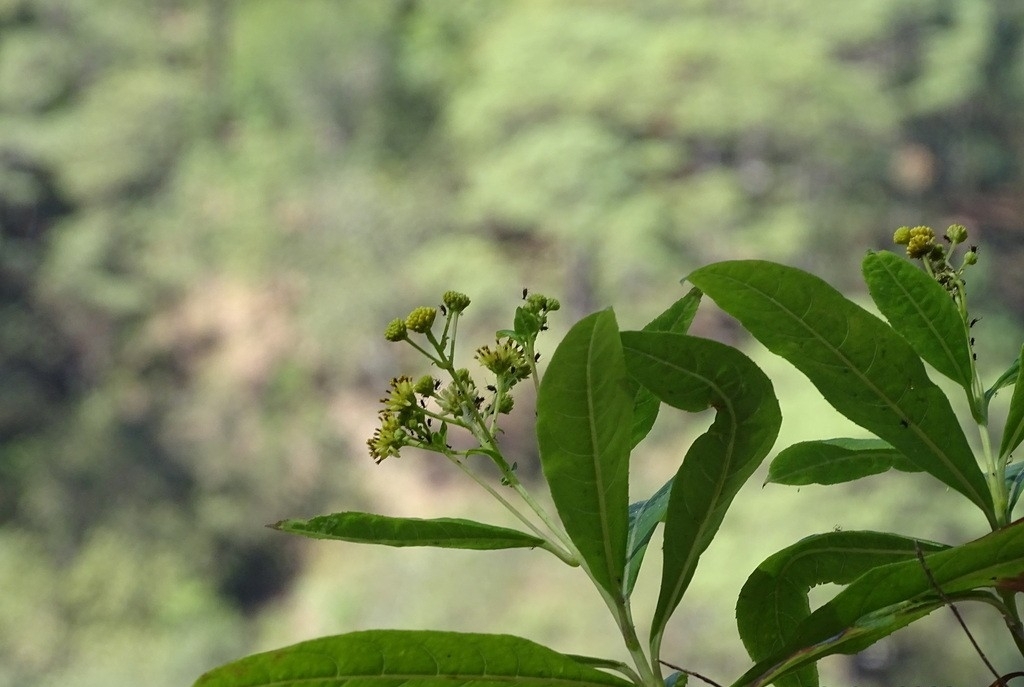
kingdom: Plantae
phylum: Tracheophyta
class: Magnoliopsida
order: Asterales
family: Asteraceae
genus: Verbesina
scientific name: Verbesina glaucophylla
